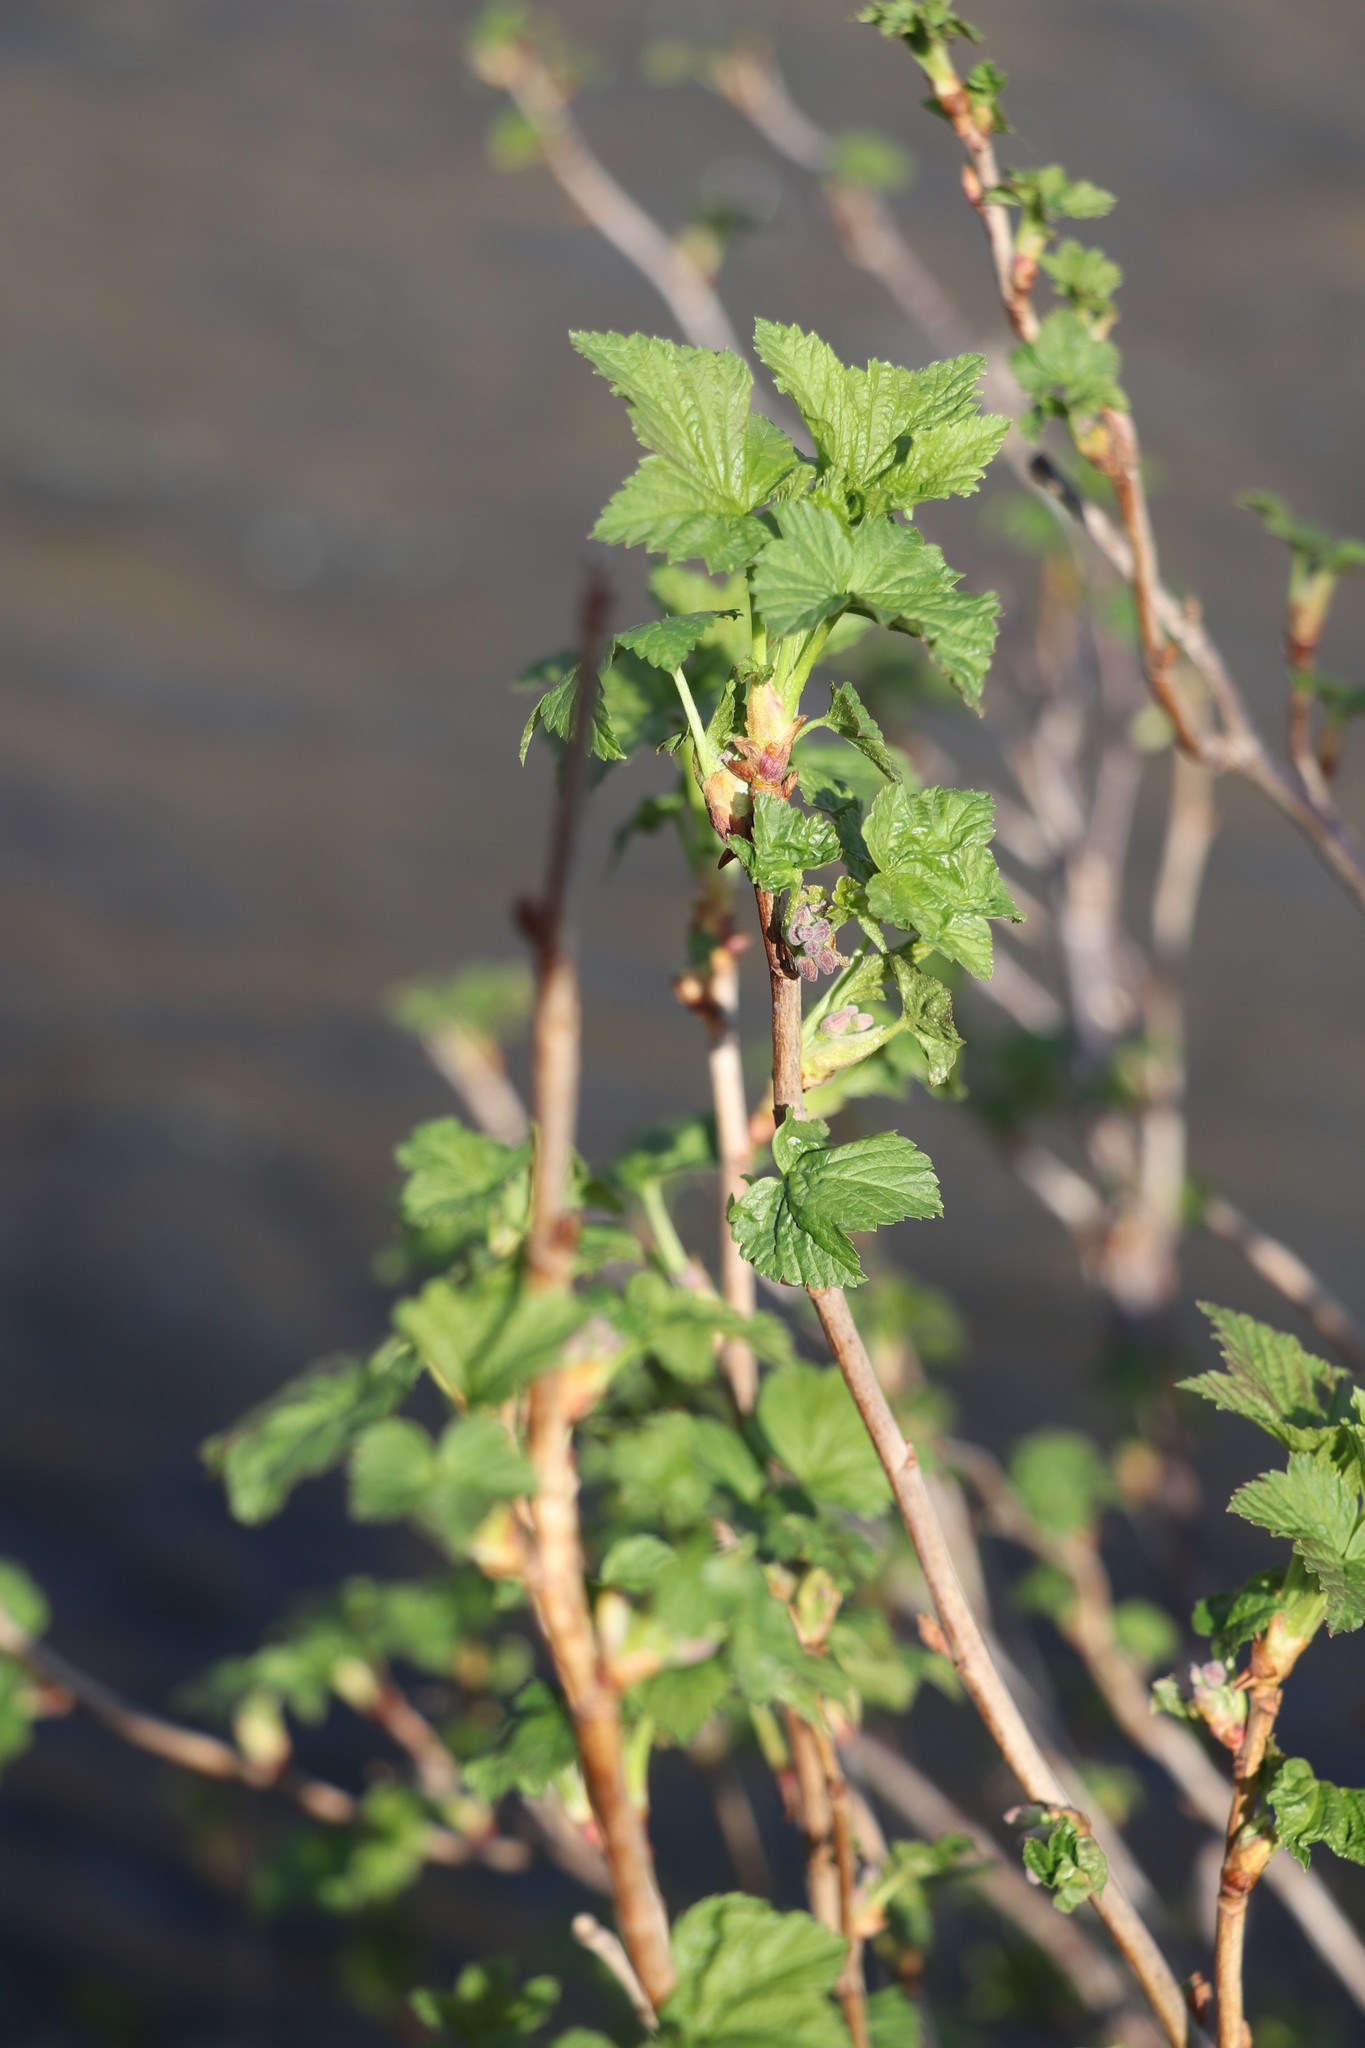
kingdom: Plantae
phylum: Tracheophyta
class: Magnoliopsida
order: Saxifragales
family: Grossulariaceae
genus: Ribes
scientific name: Ribes nigrum
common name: Black currant
